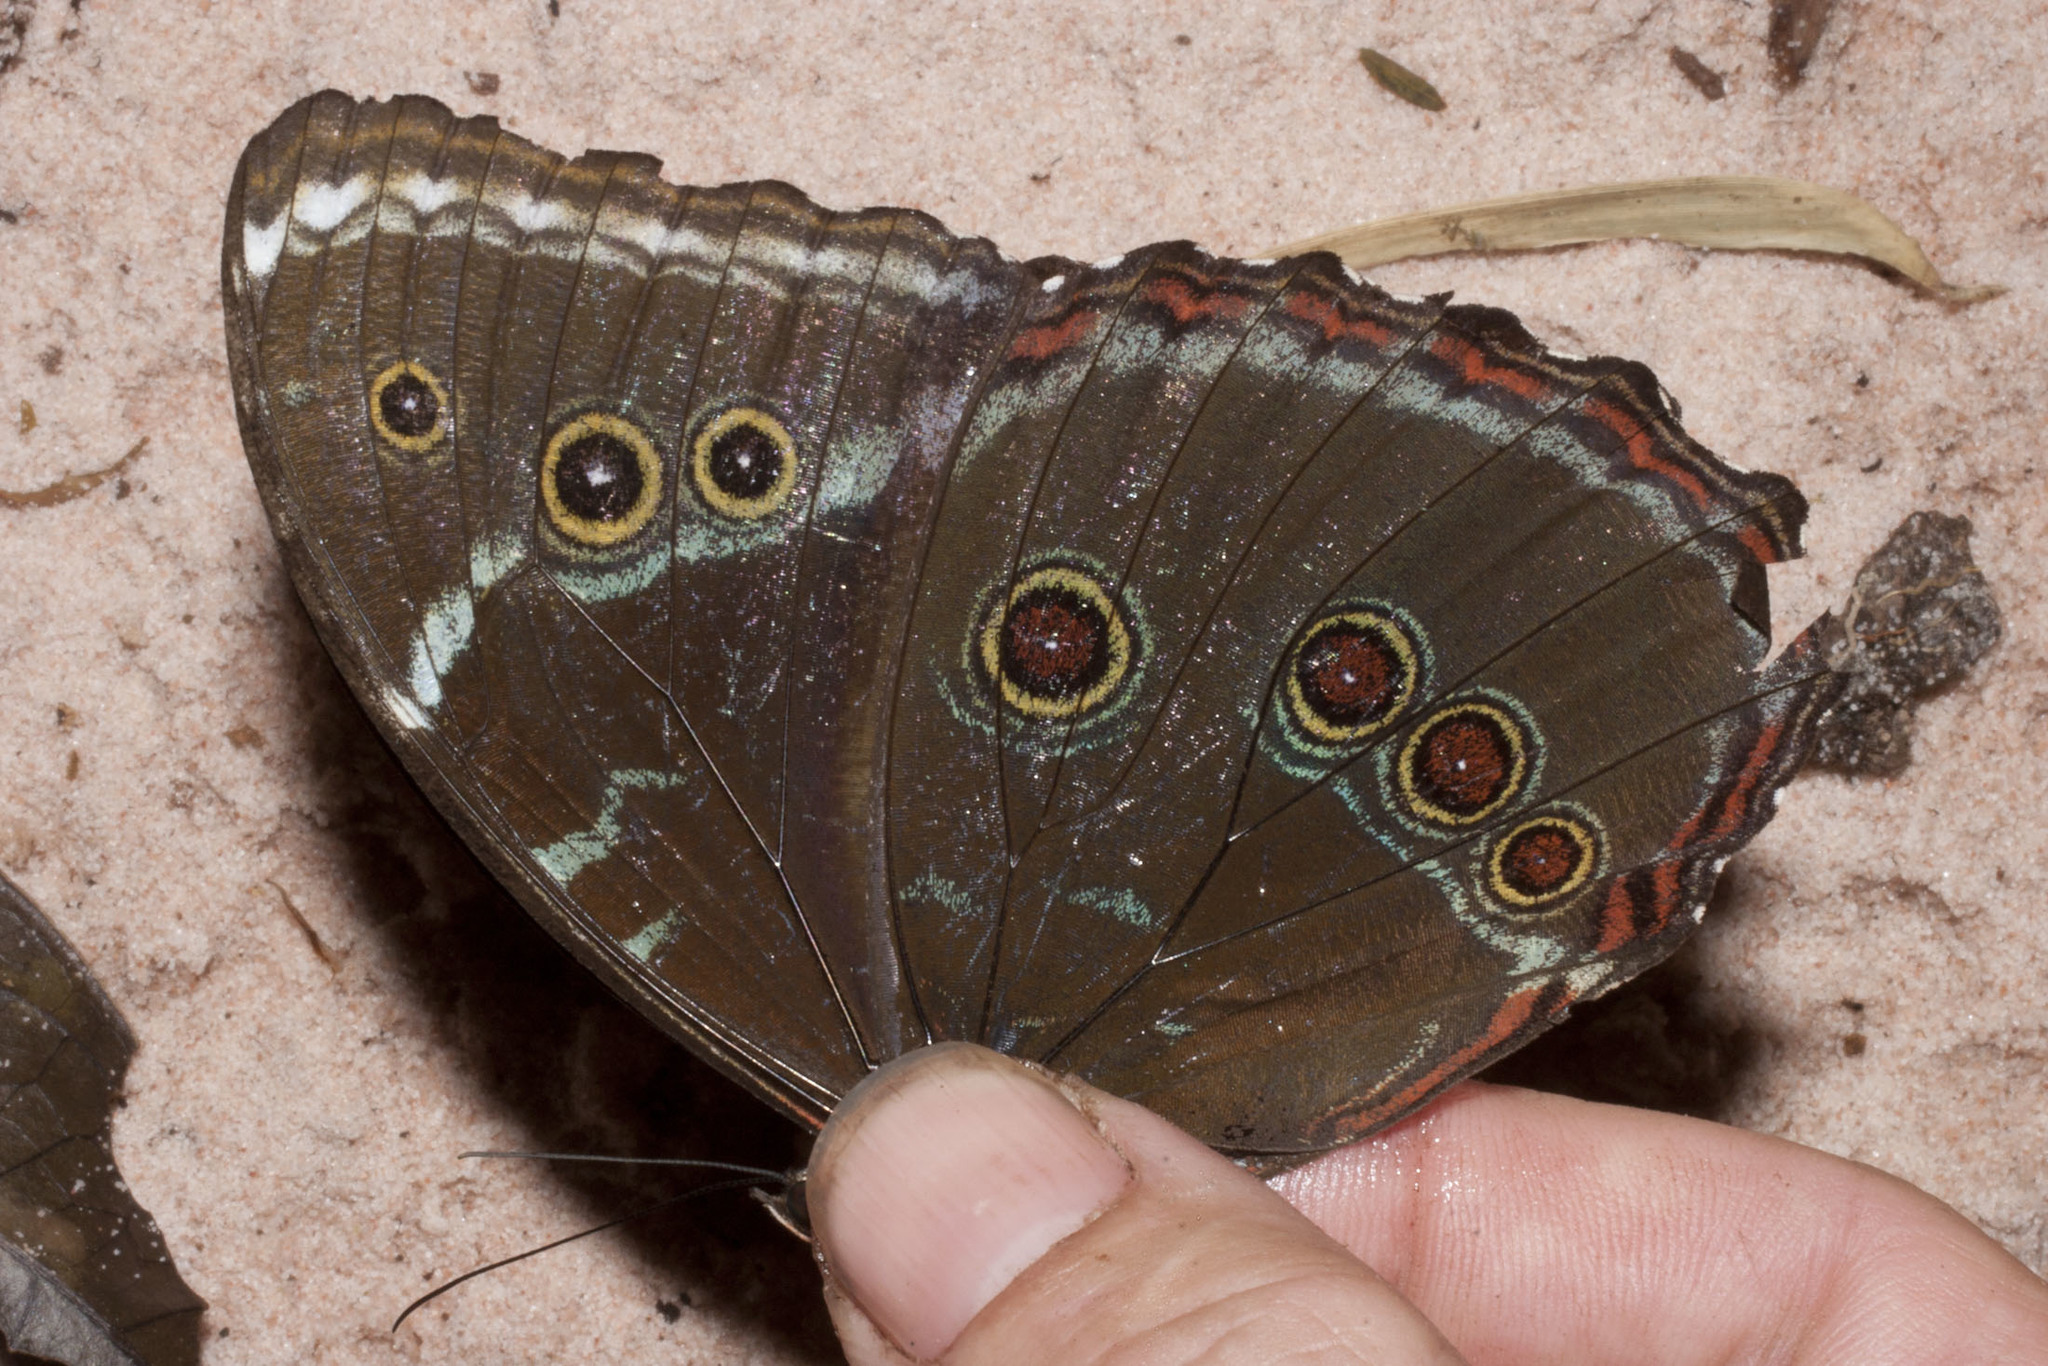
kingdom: Animalia
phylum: Arthropoda
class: Insecta
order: Lepidoptera
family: Nymphalidae
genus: Morpho
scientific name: Morpho helenor
